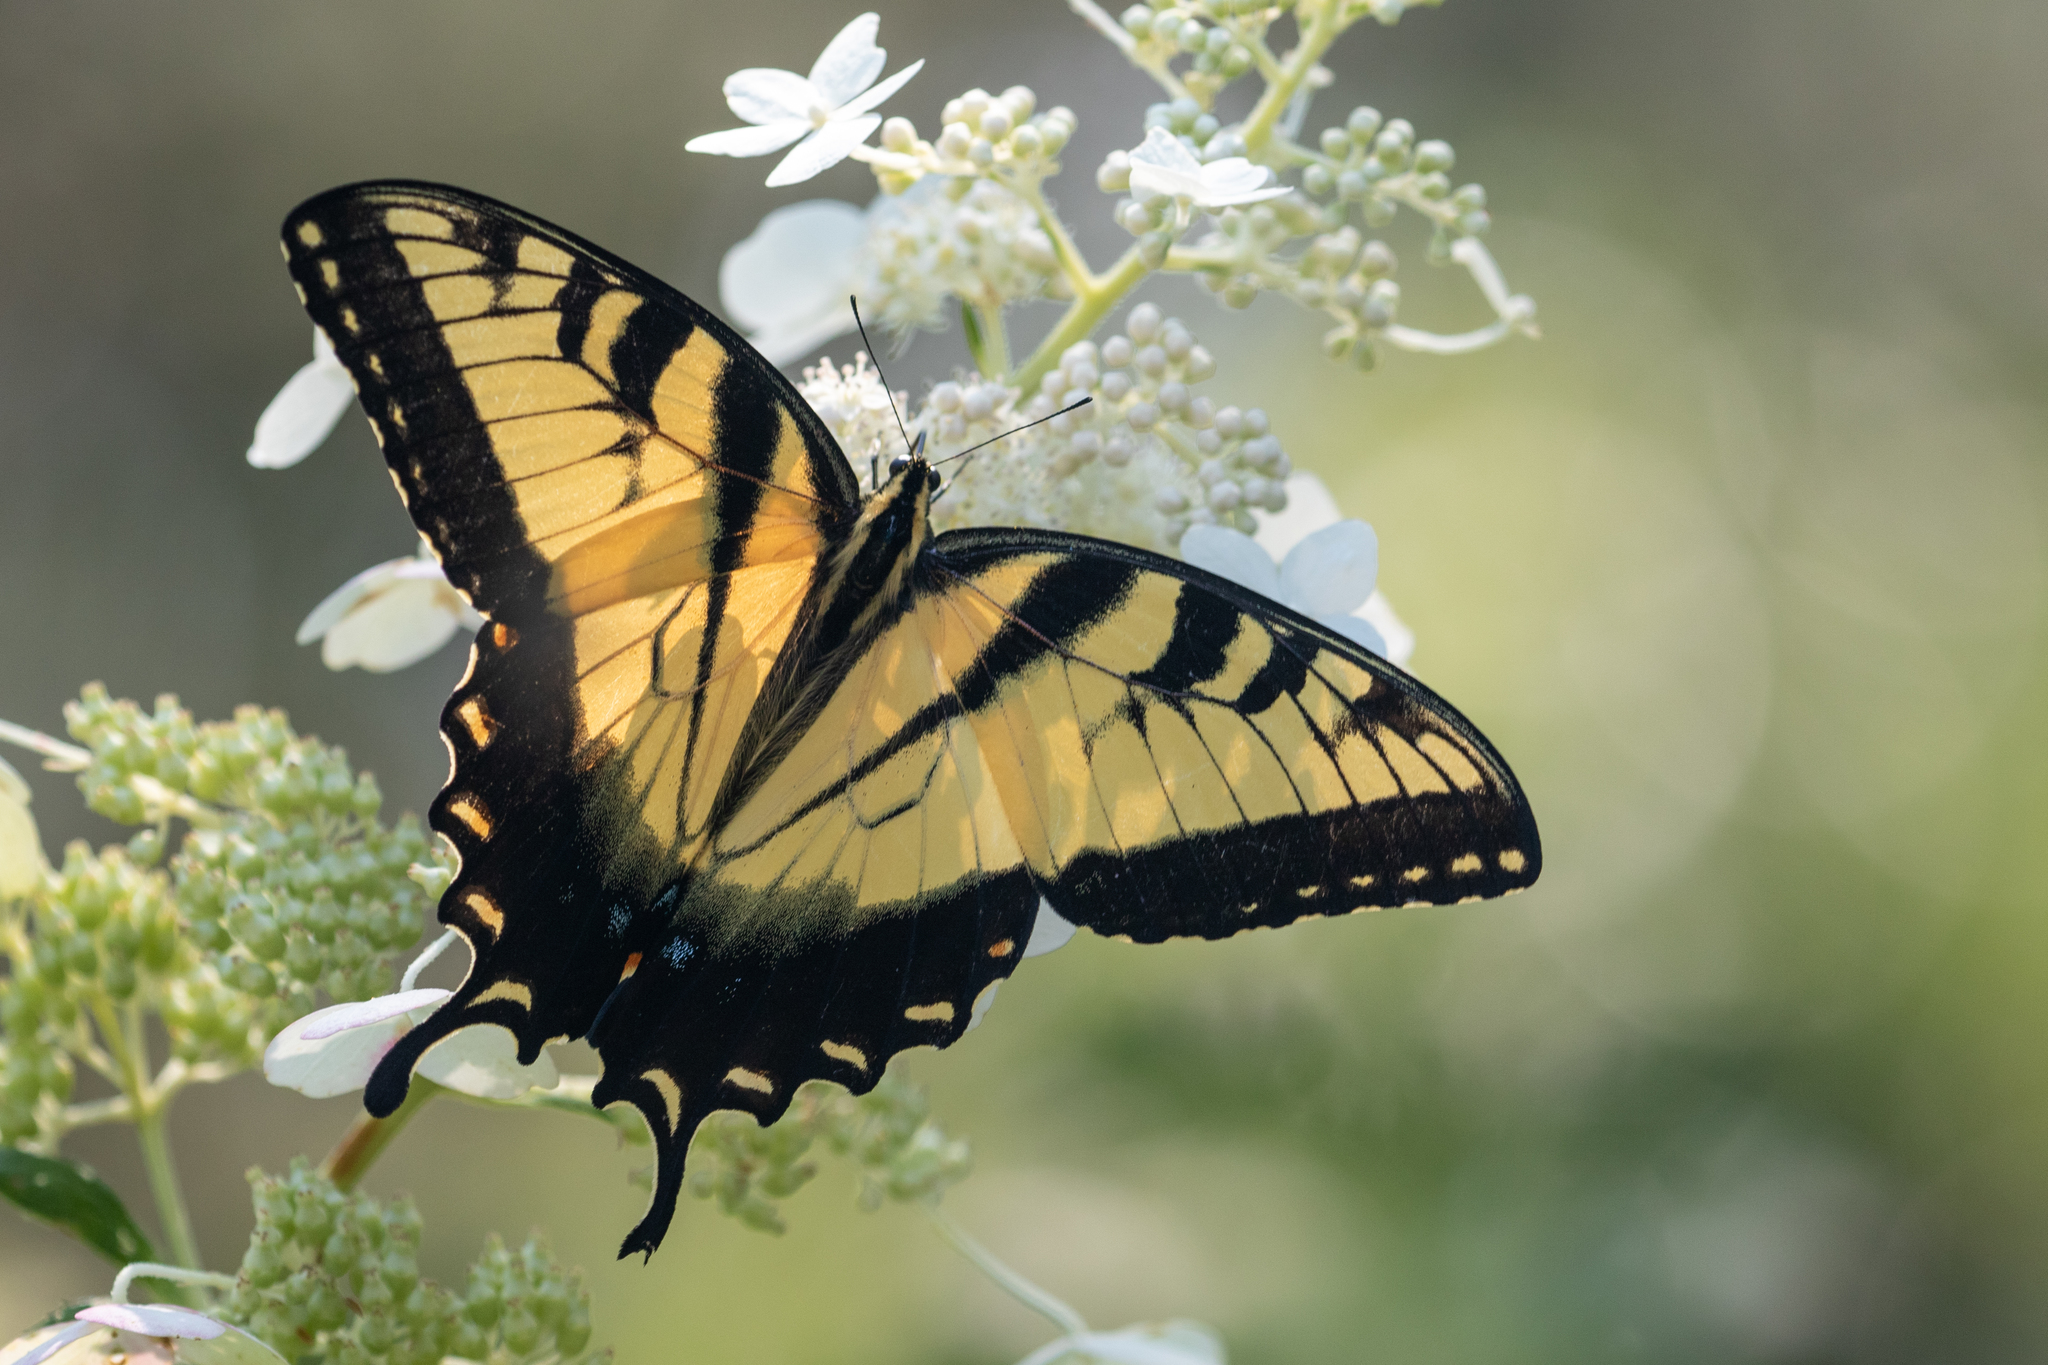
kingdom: Animalia
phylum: Arthropoda
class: Insecta
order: Lepidoptera
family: Papilionidae
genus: Papilio
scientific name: Papilio glaucus
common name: Tiger swallowtail
